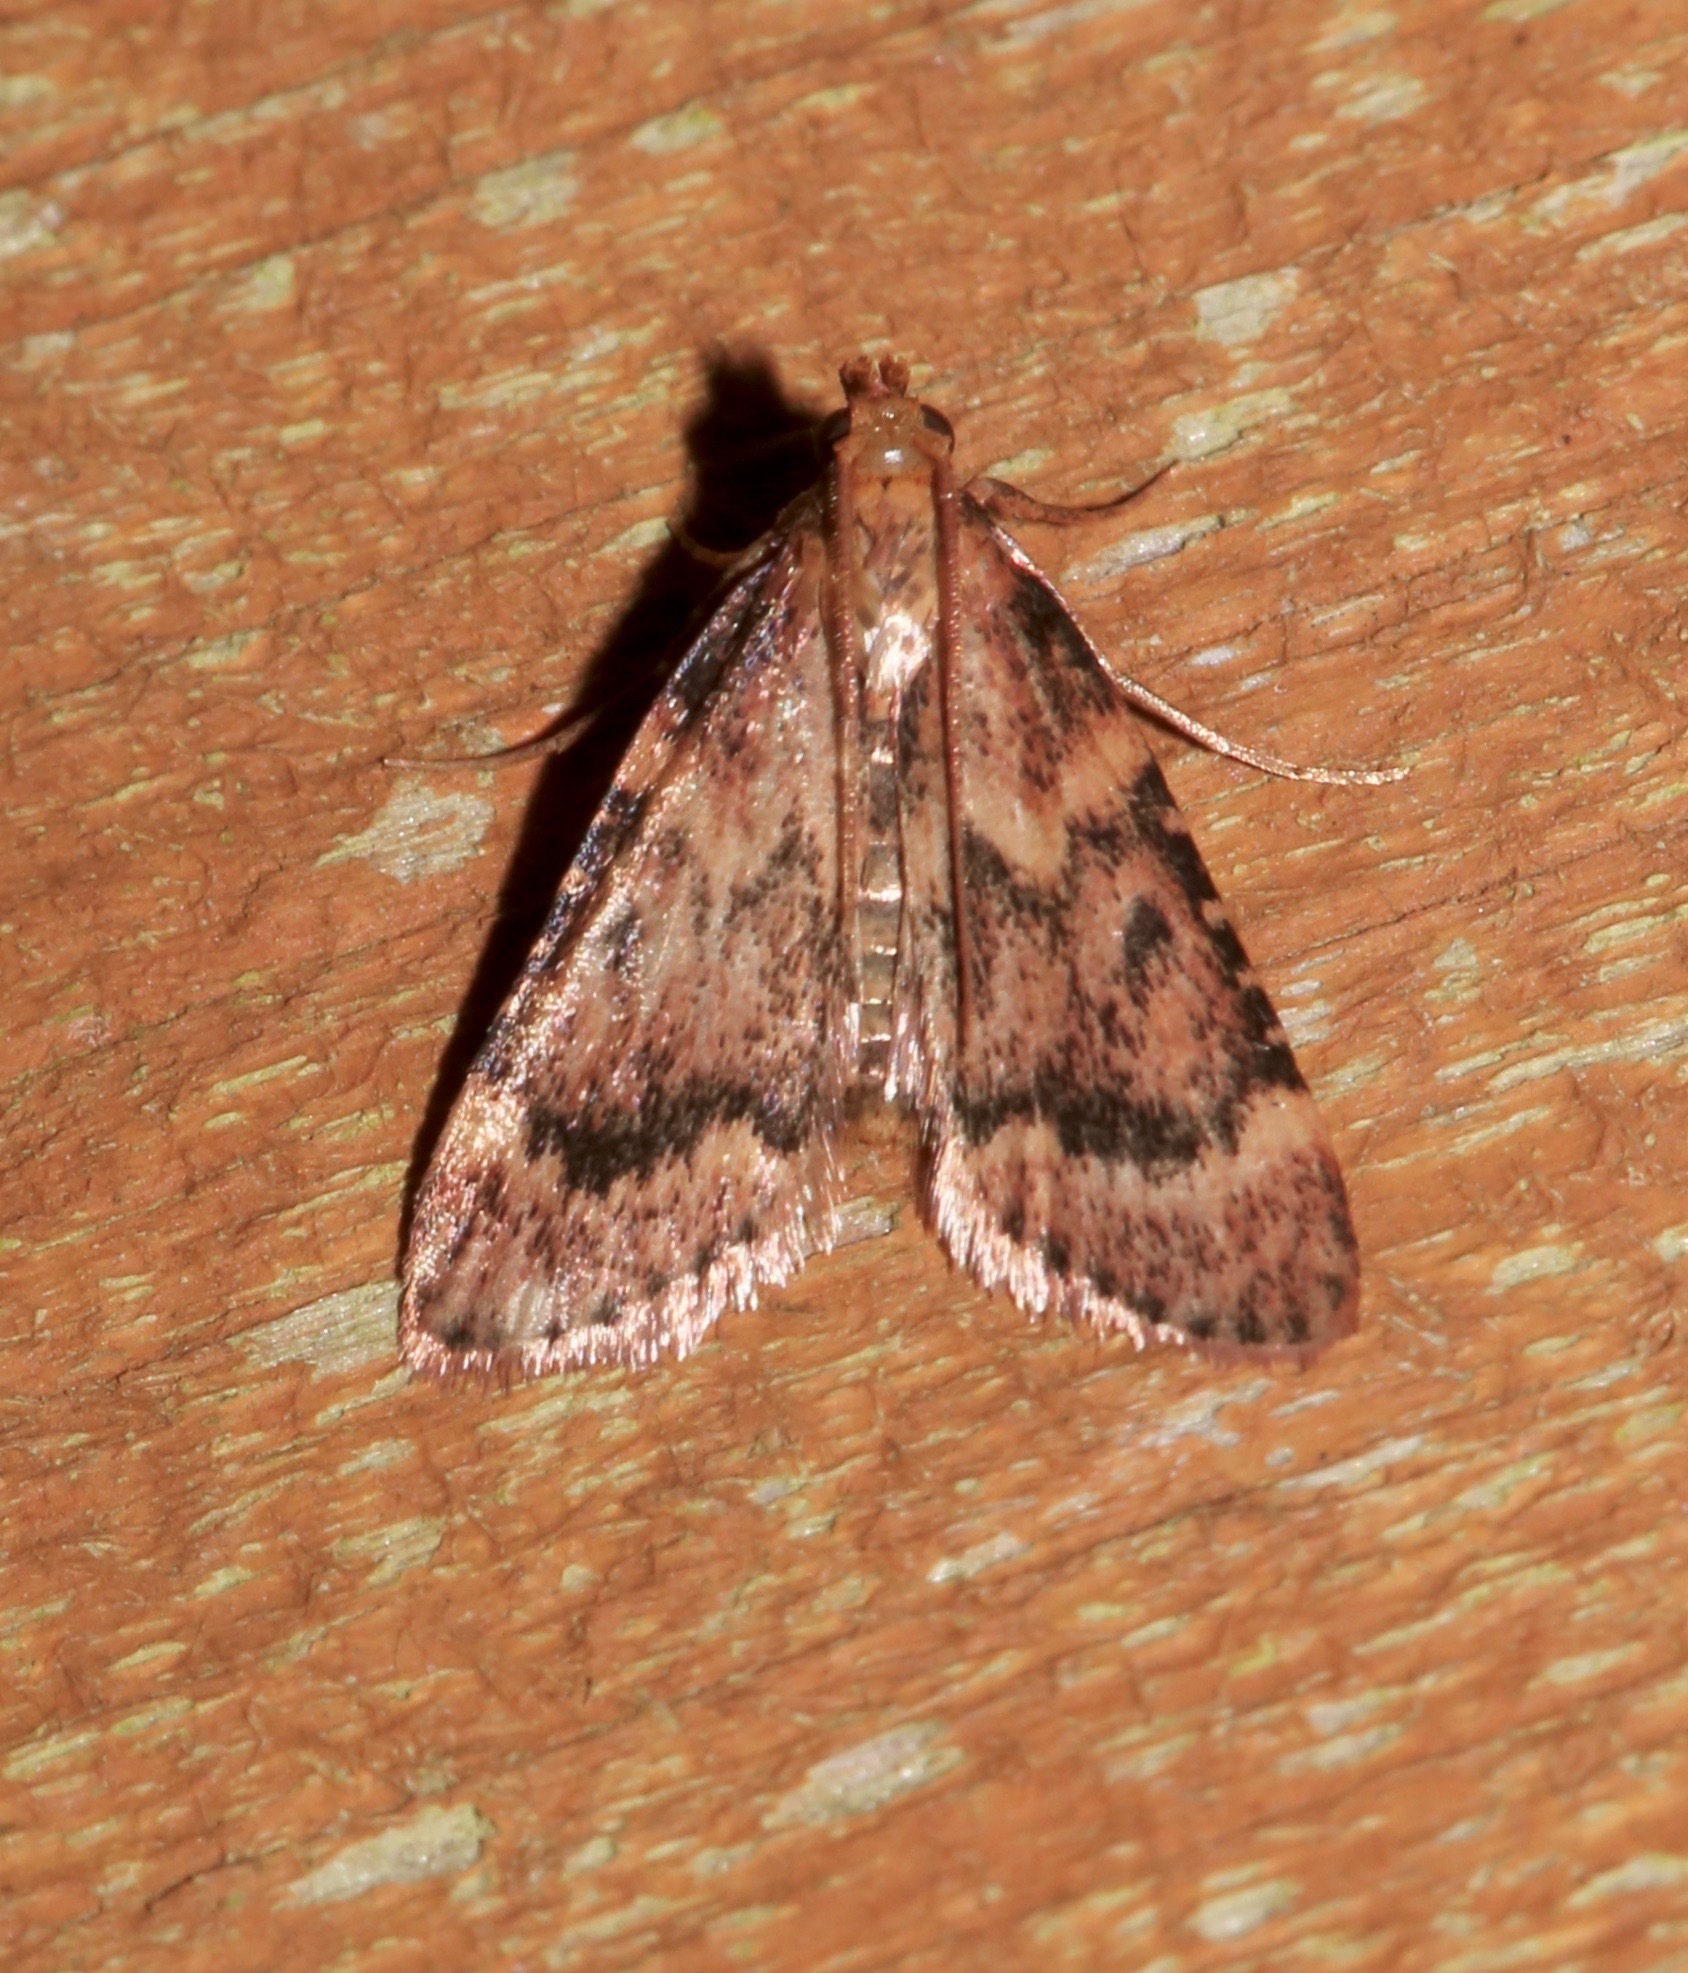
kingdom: Animalia
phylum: Arthropoda
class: Insecta
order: Lepidoptera
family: Pyralidae
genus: Aglossa
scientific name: Aglossa disciferalis
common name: Pink-masked pyralid moth
